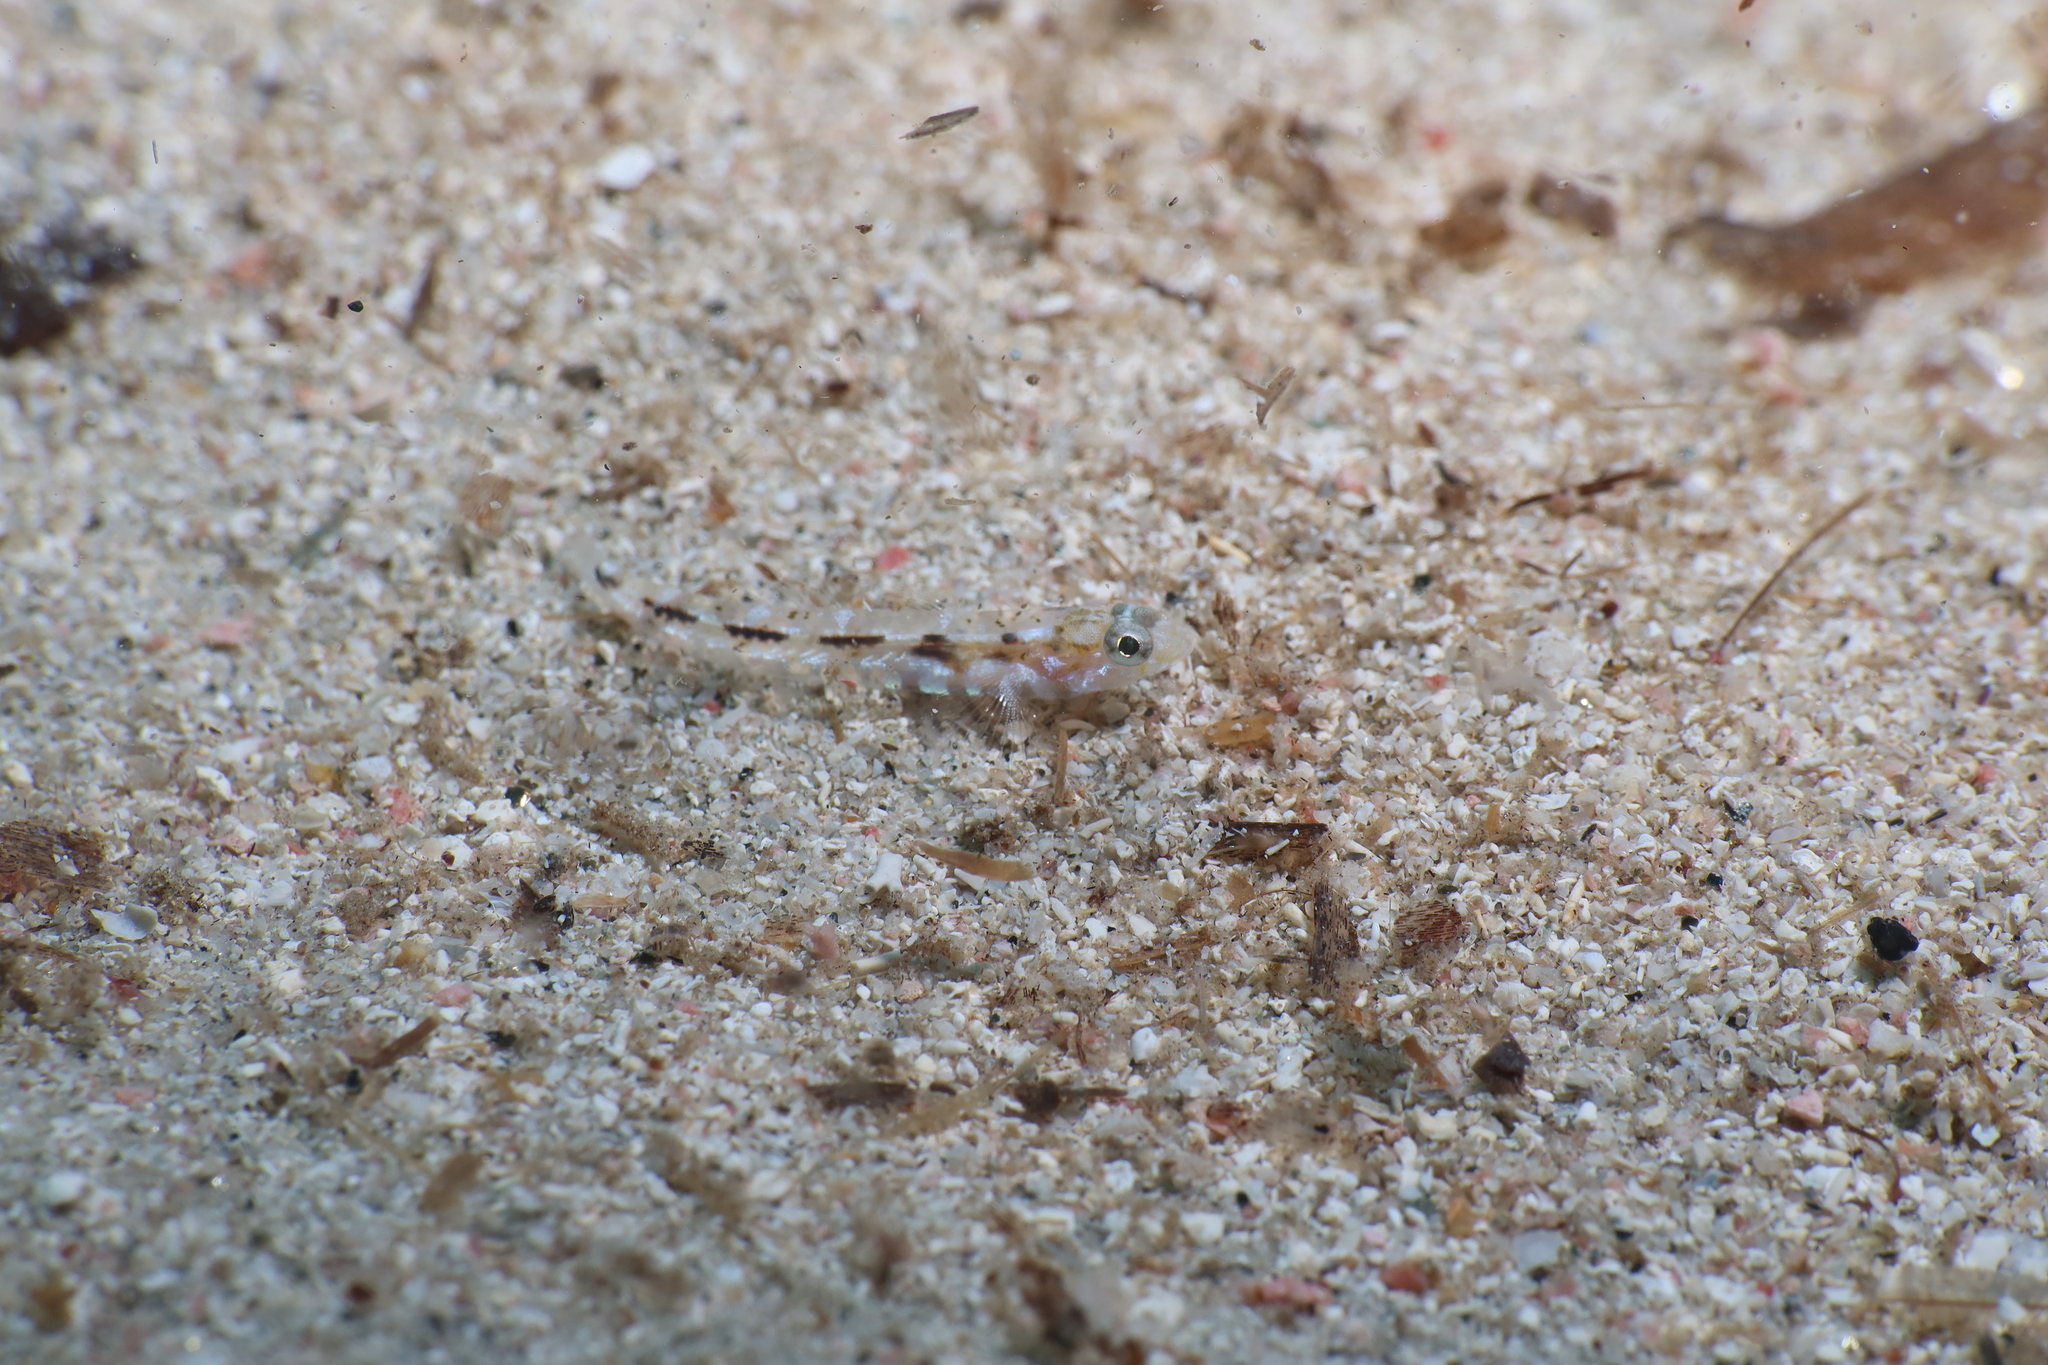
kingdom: Animalia
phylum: Chordata
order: Perciformes
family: Gobiidae
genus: Pomatoschistus
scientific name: Pomatoschistus bathi
